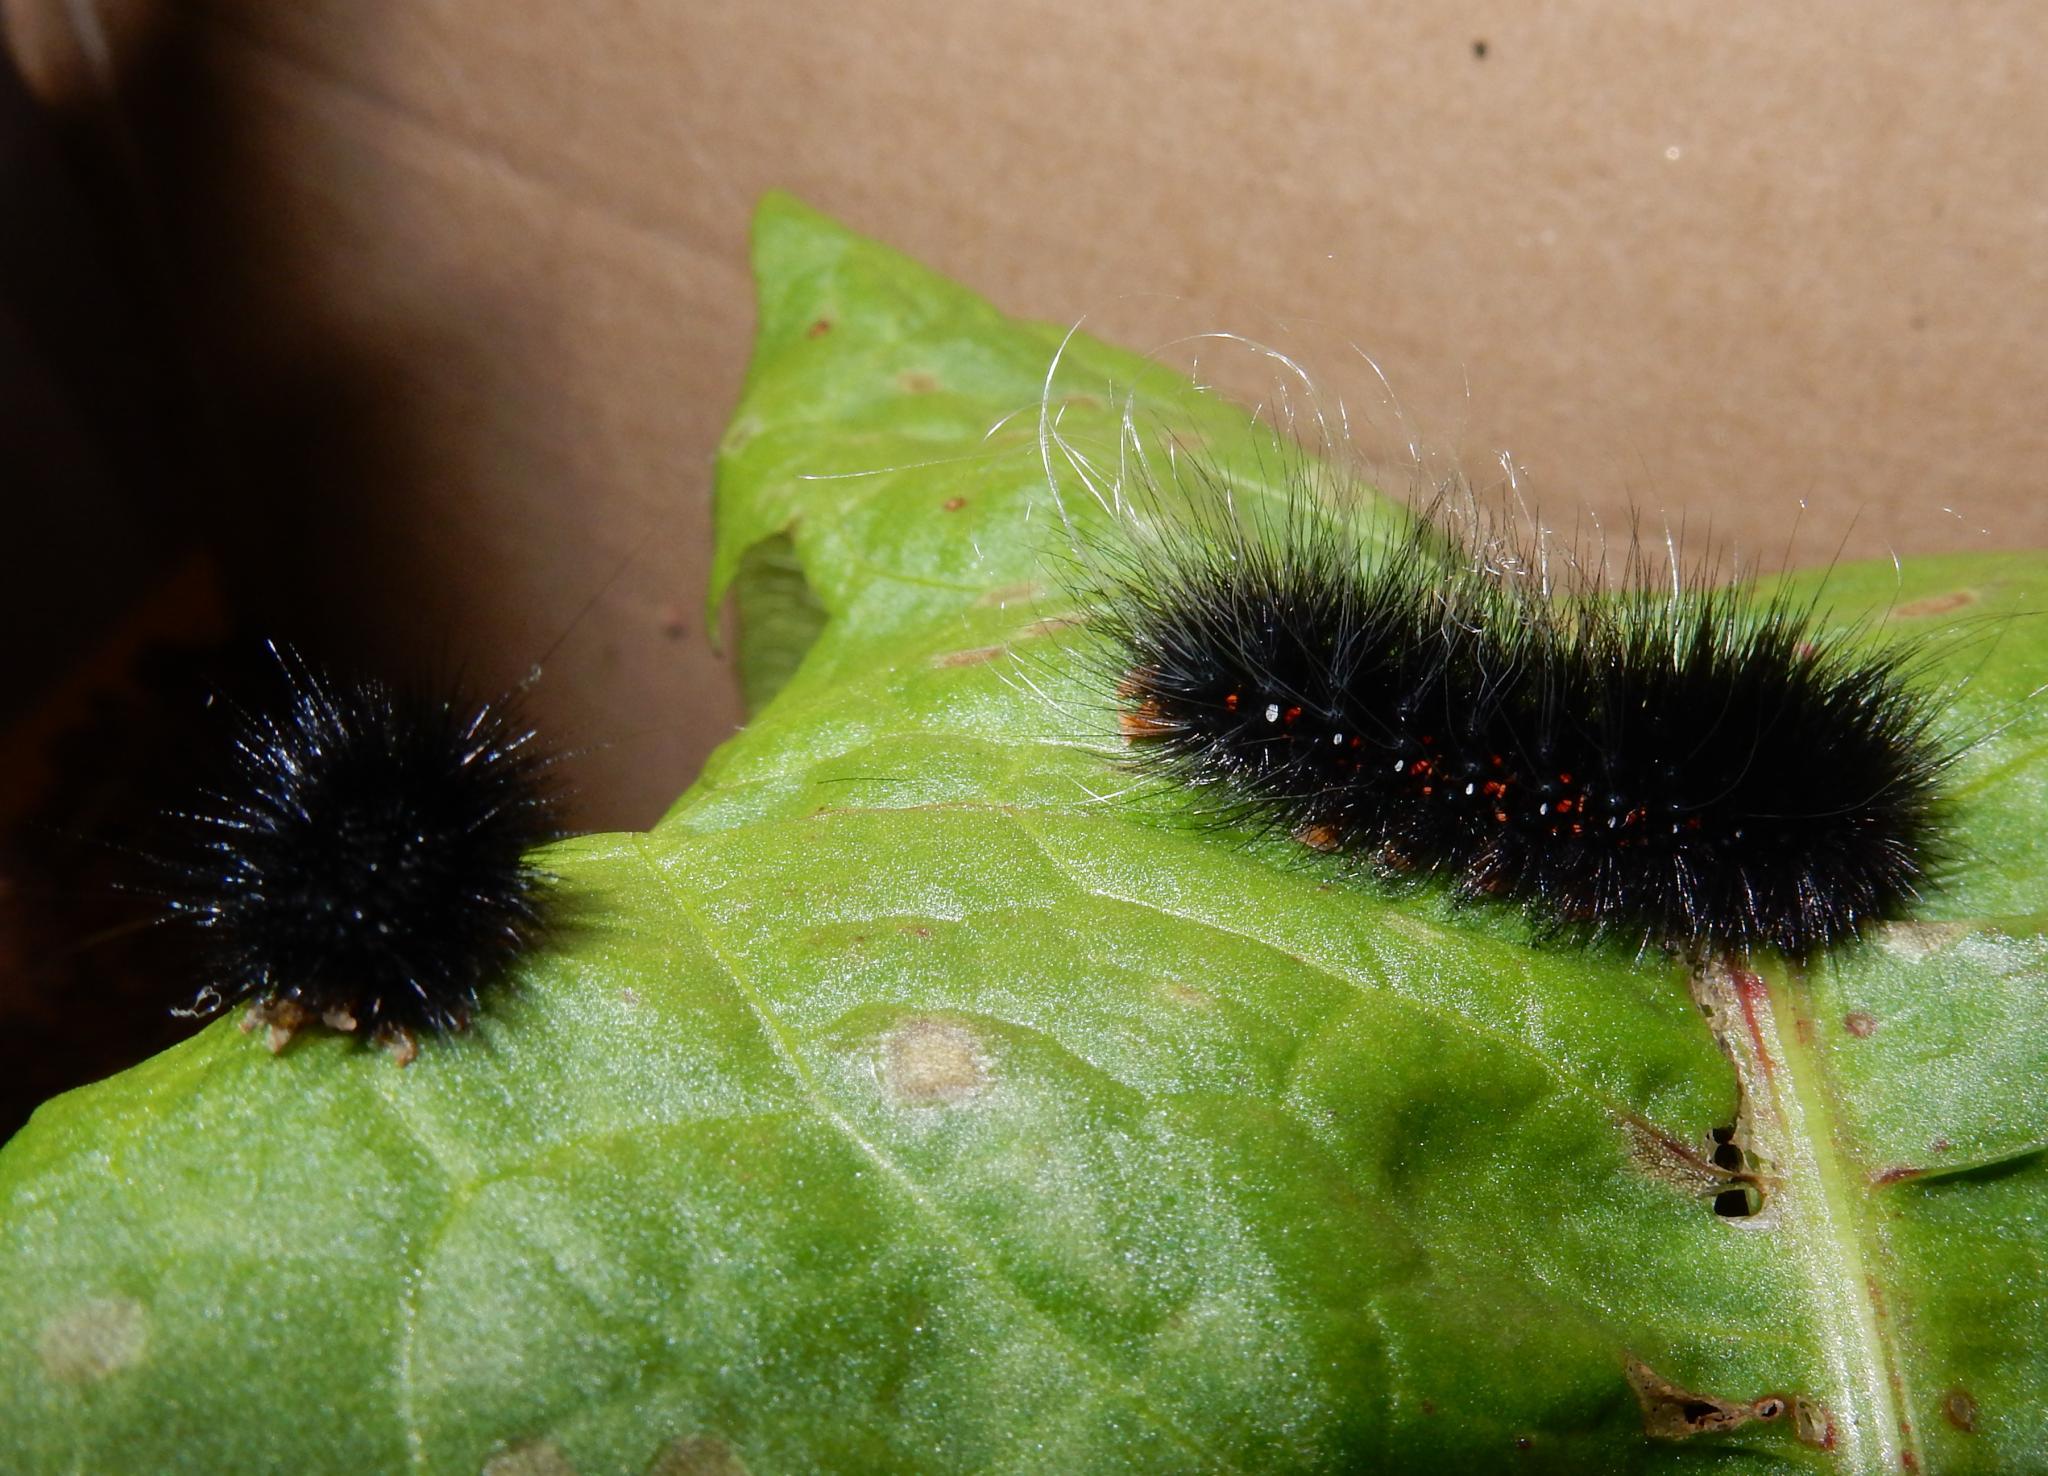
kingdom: Animalia
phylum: Arthropoda
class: Insecta
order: Lepidoptera
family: Erebidae
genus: Afromurzinia
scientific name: Afromurzinia lutescens
